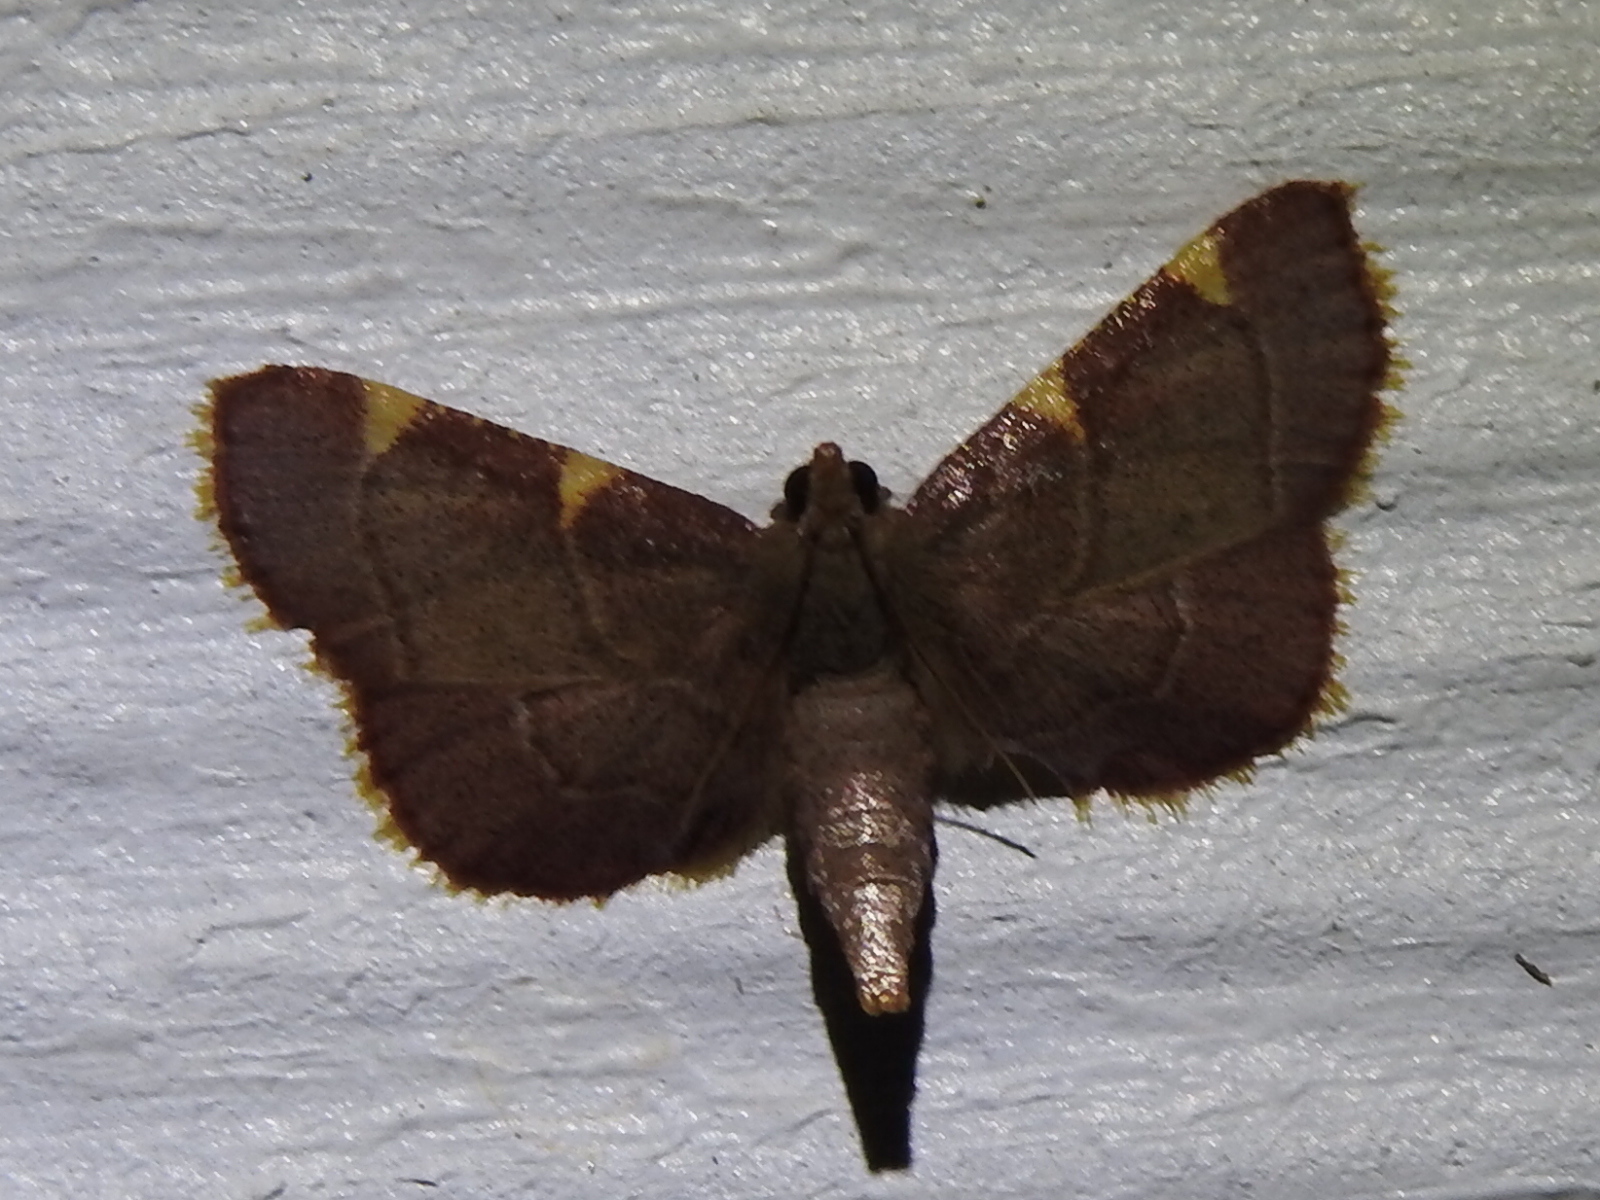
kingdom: Animalia
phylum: Arthropoda
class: Insecta
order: Lepidoptera
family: Pyralidae
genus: Hypsopygia
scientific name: Hypsopygia olinalis
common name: Yellow-fringed dolichomia moth
